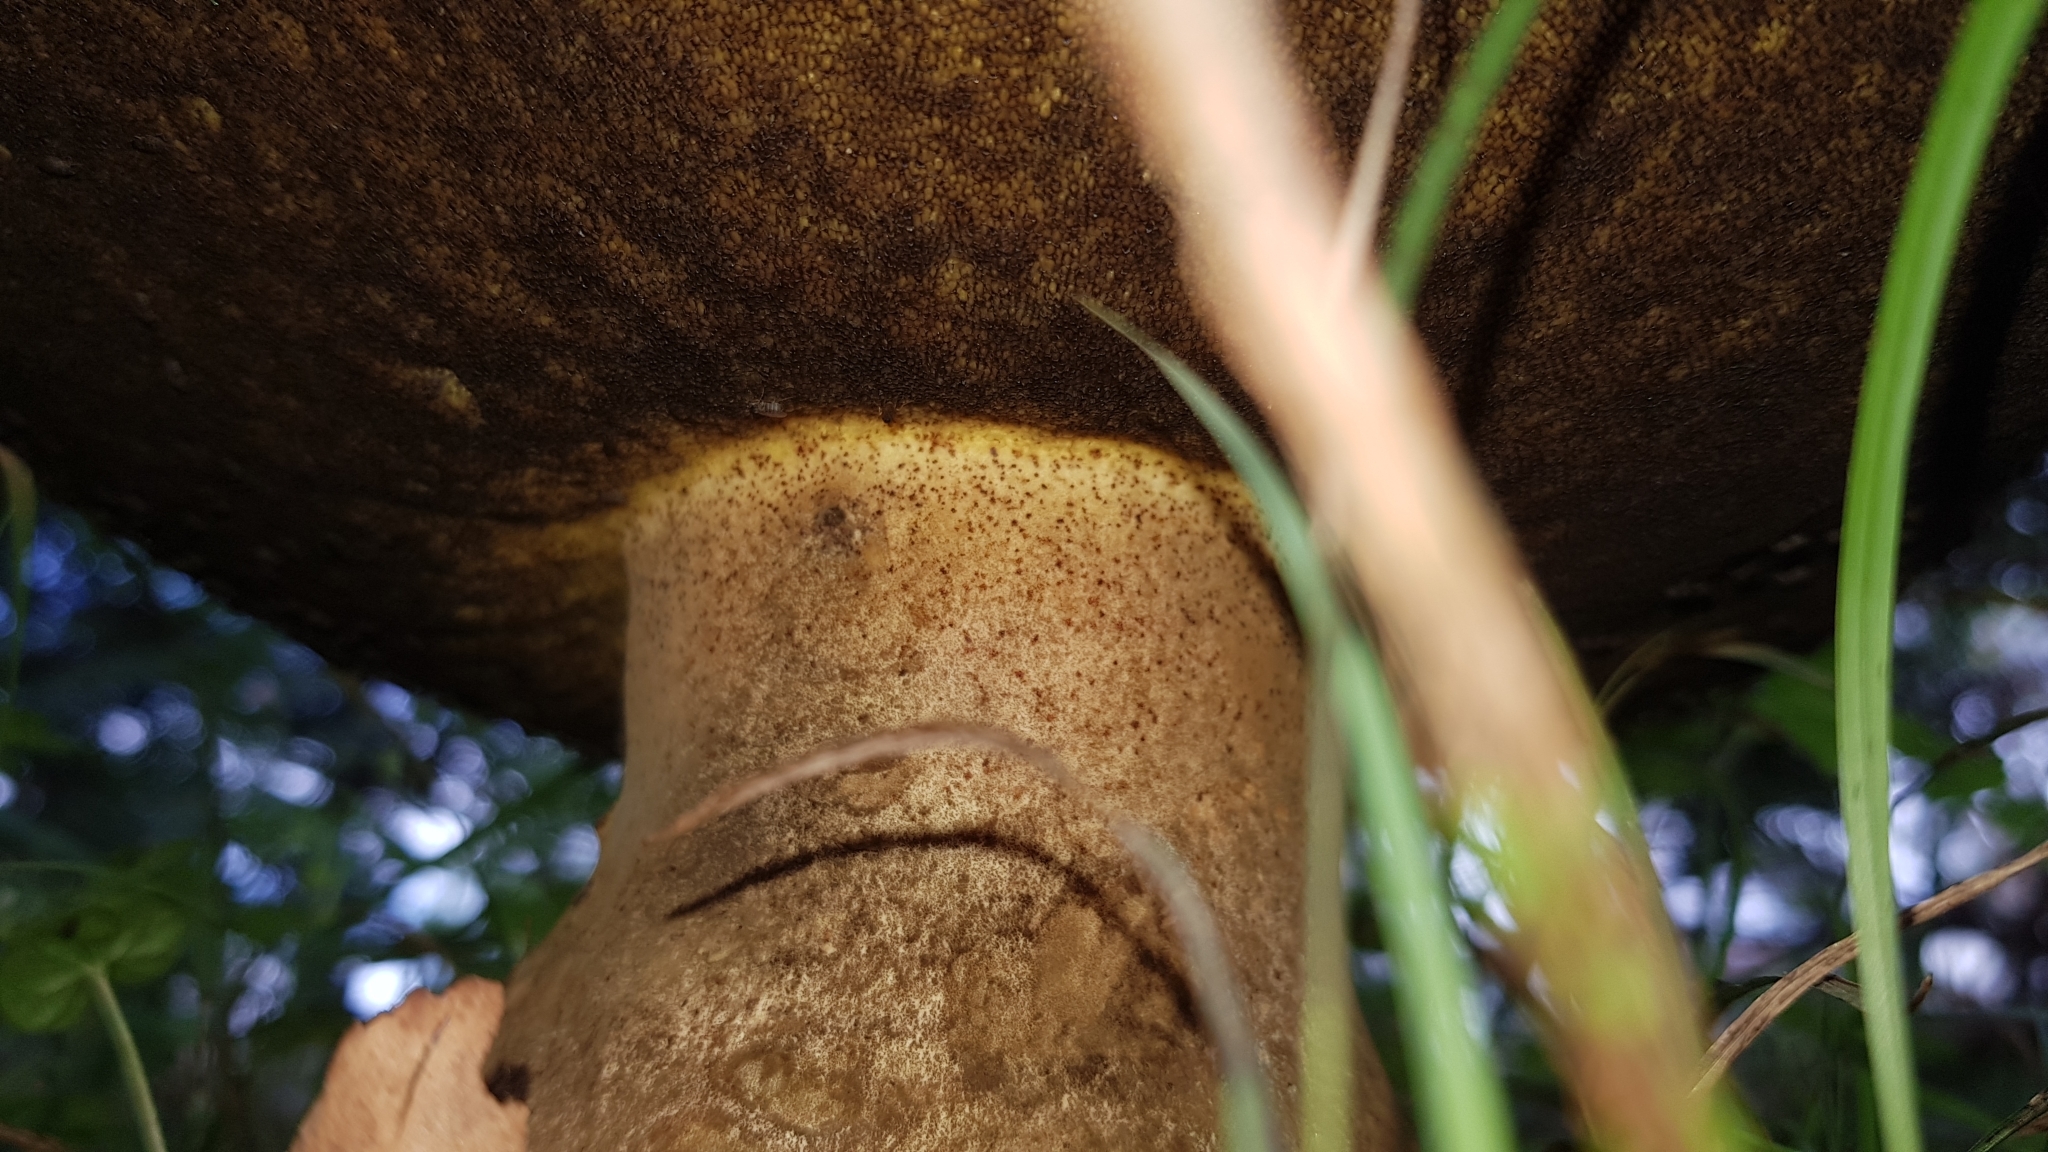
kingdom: Fungi
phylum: Basidiomycota
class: Agaricomycetes
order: Boletales
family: Boletinellaceae
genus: Phlebopus
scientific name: Phlebopus marginatus
